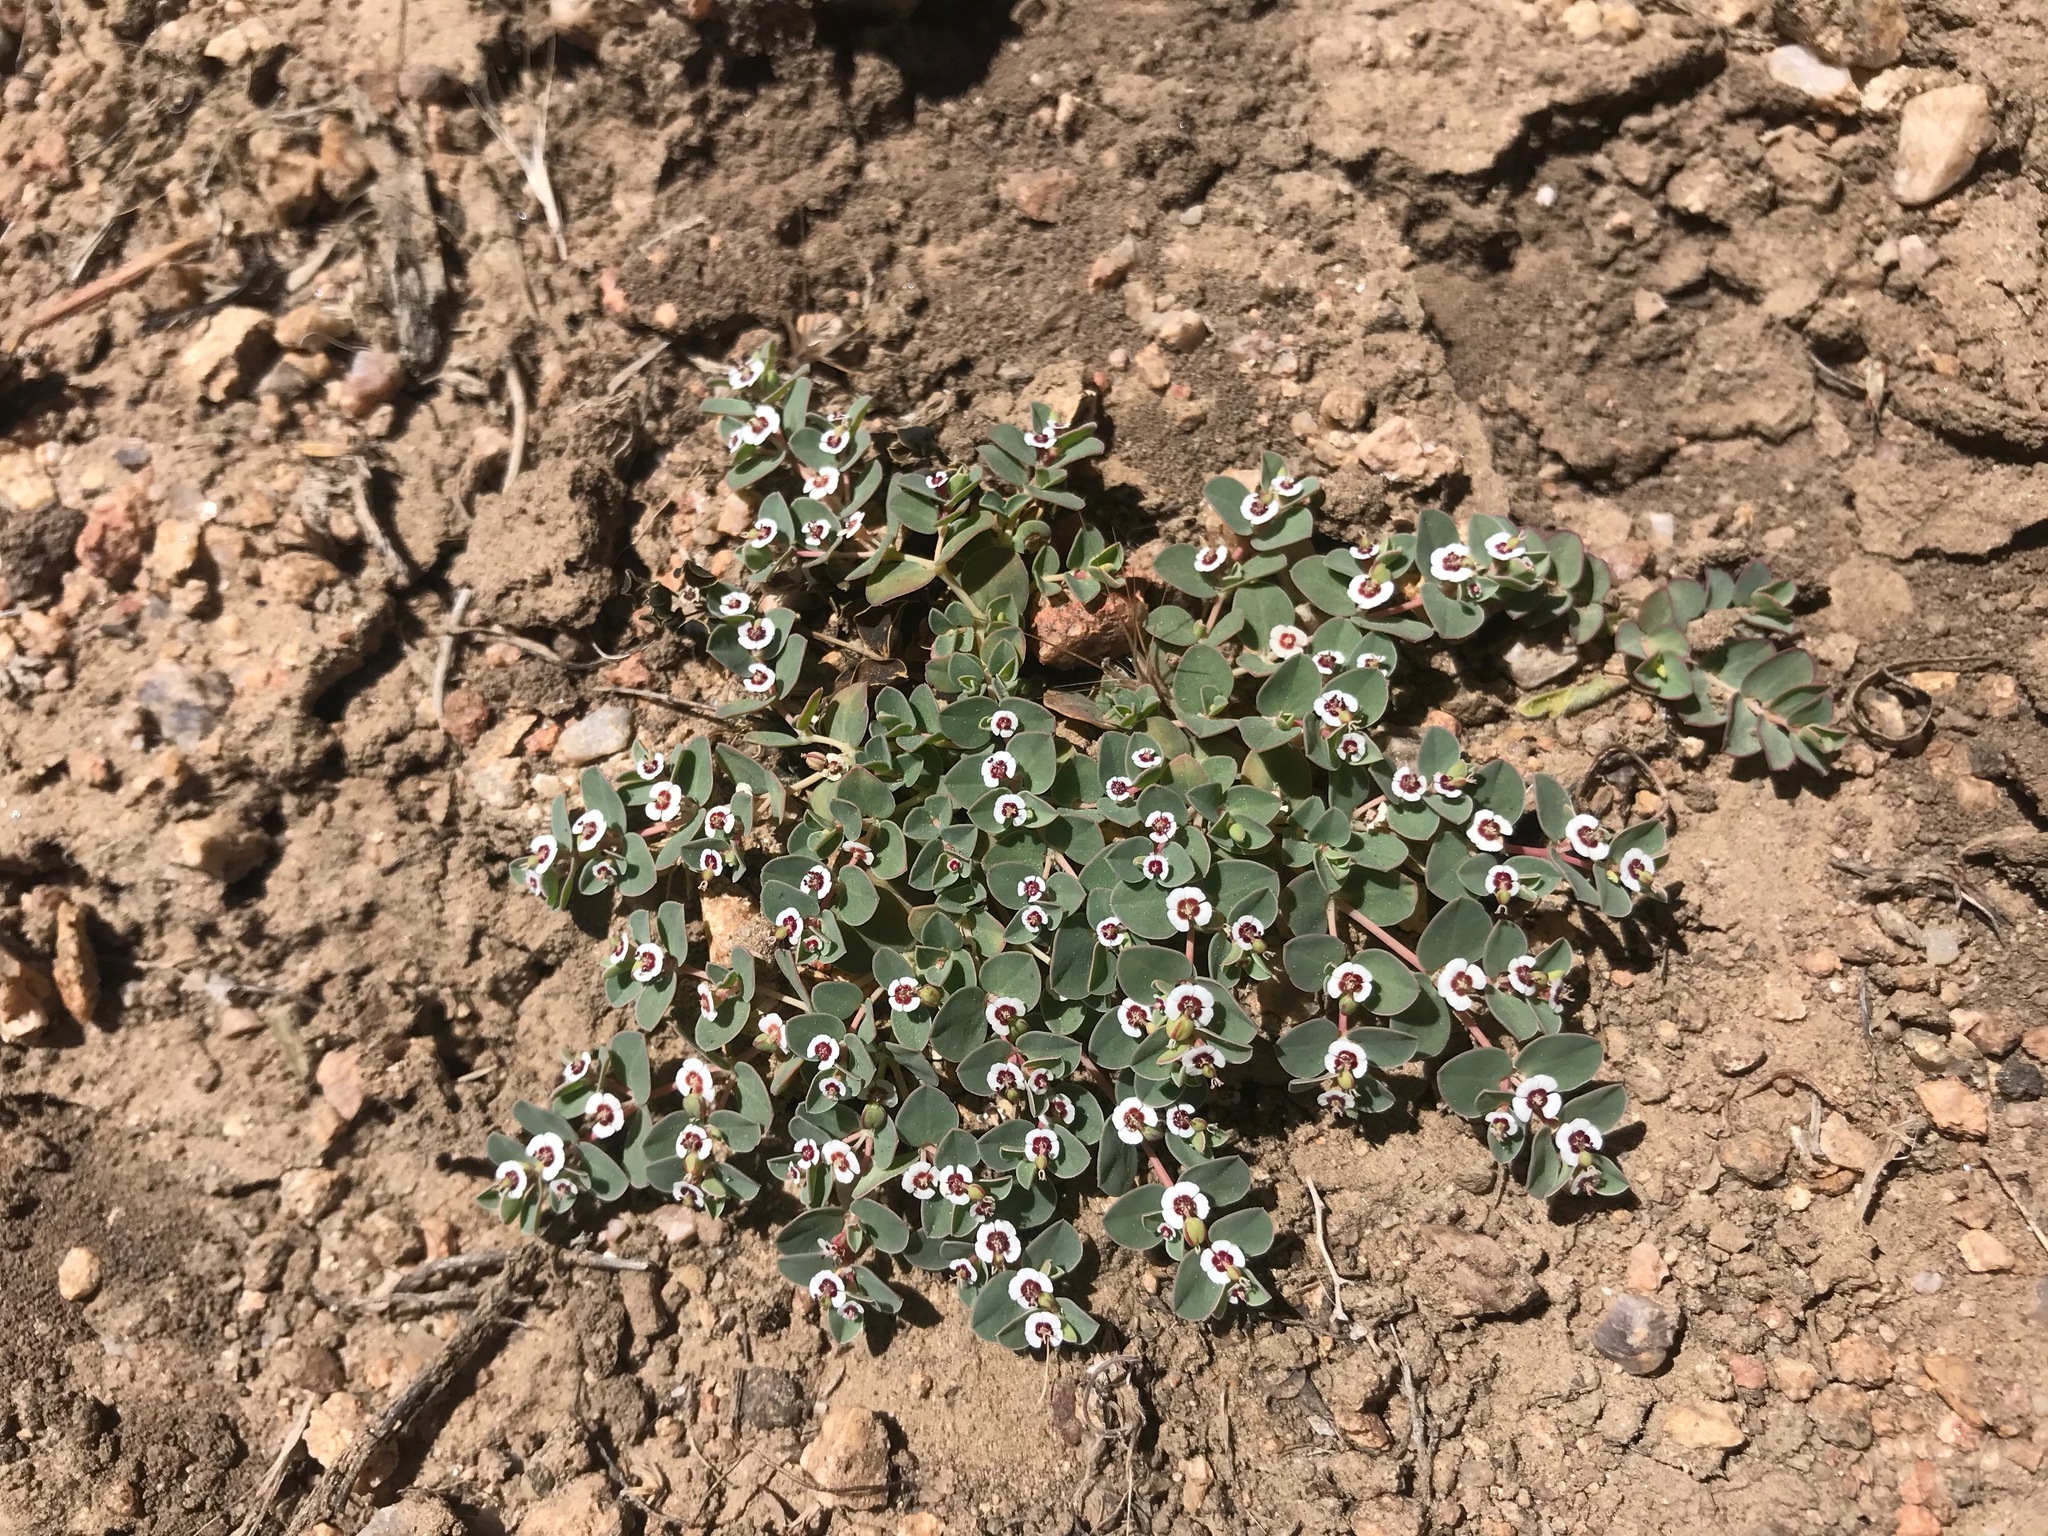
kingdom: Plantae
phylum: Tracheophyta
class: Magnoliopsida
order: Malpighiales
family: Euphorbiaceae
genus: Euphorbia
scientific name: Euphorbia albomarginata
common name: Whitemargin sandmat
